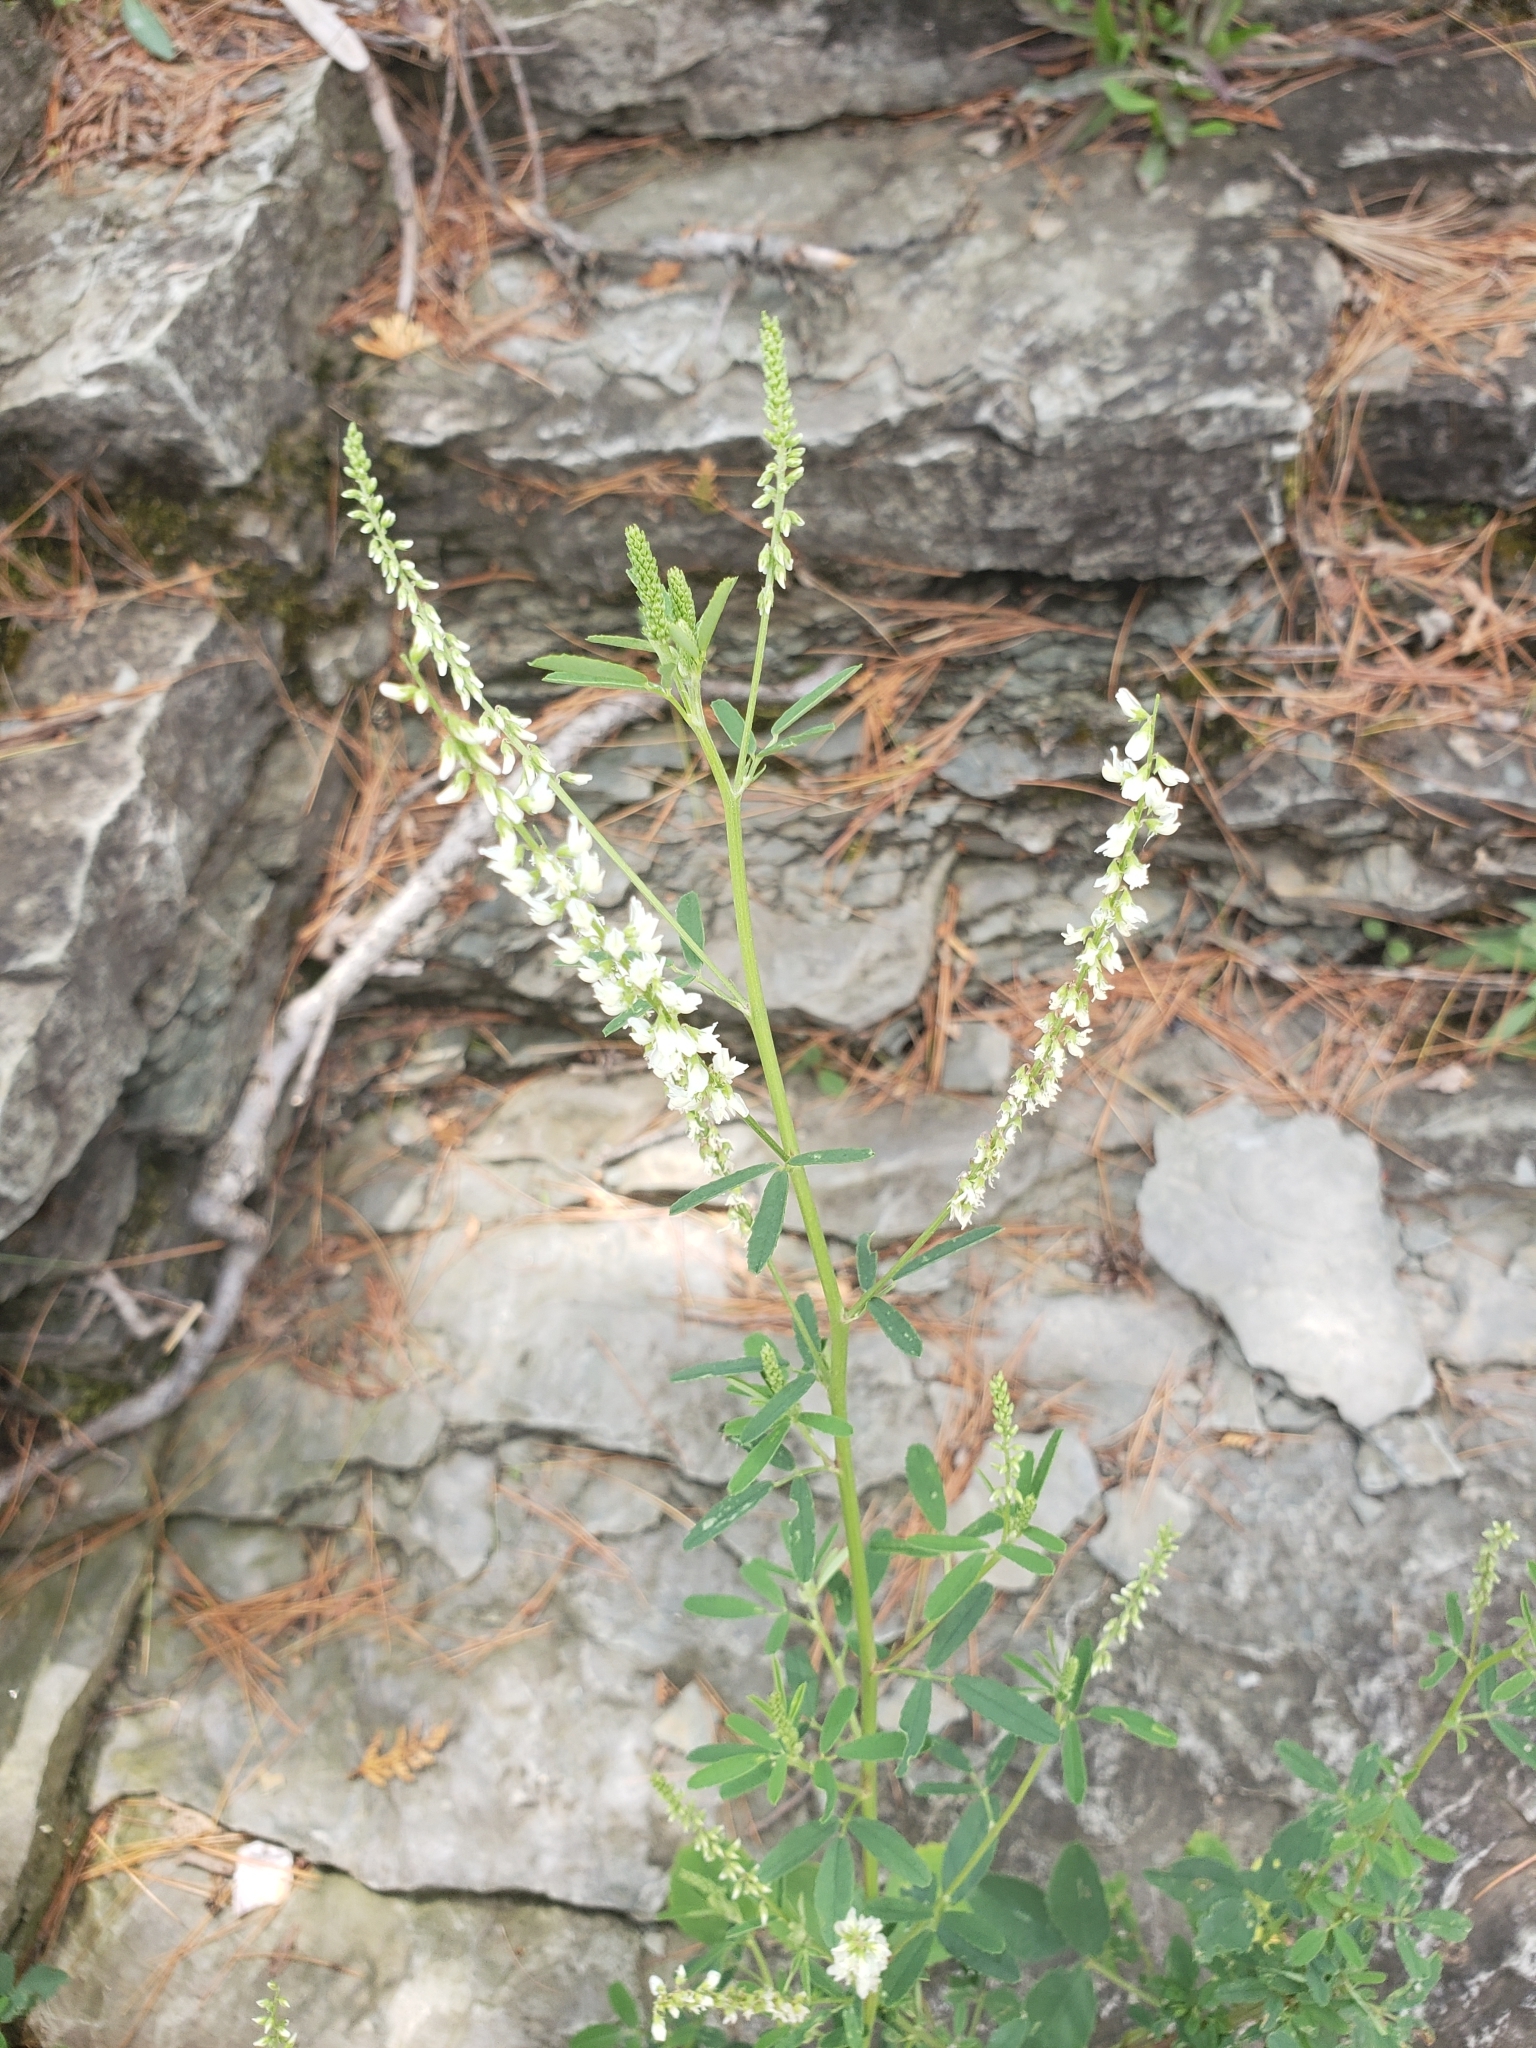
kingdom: Plantae
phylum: Tracheophyta
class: Magnoliopsida
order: Fabales
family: Fabaceae
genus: Melilotus
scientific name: Melilotus albus
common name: White melilot
